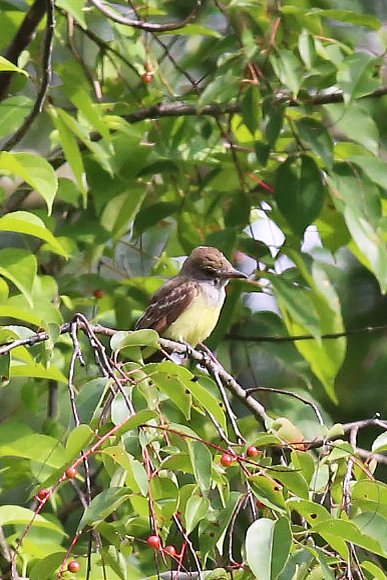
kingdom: Animalia
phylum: Chordata
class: Aves
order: Passeriformes
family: Tyrannidae
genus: Myiarchus
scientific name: Myiarchus crinitus
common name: Great crested flycatcher
